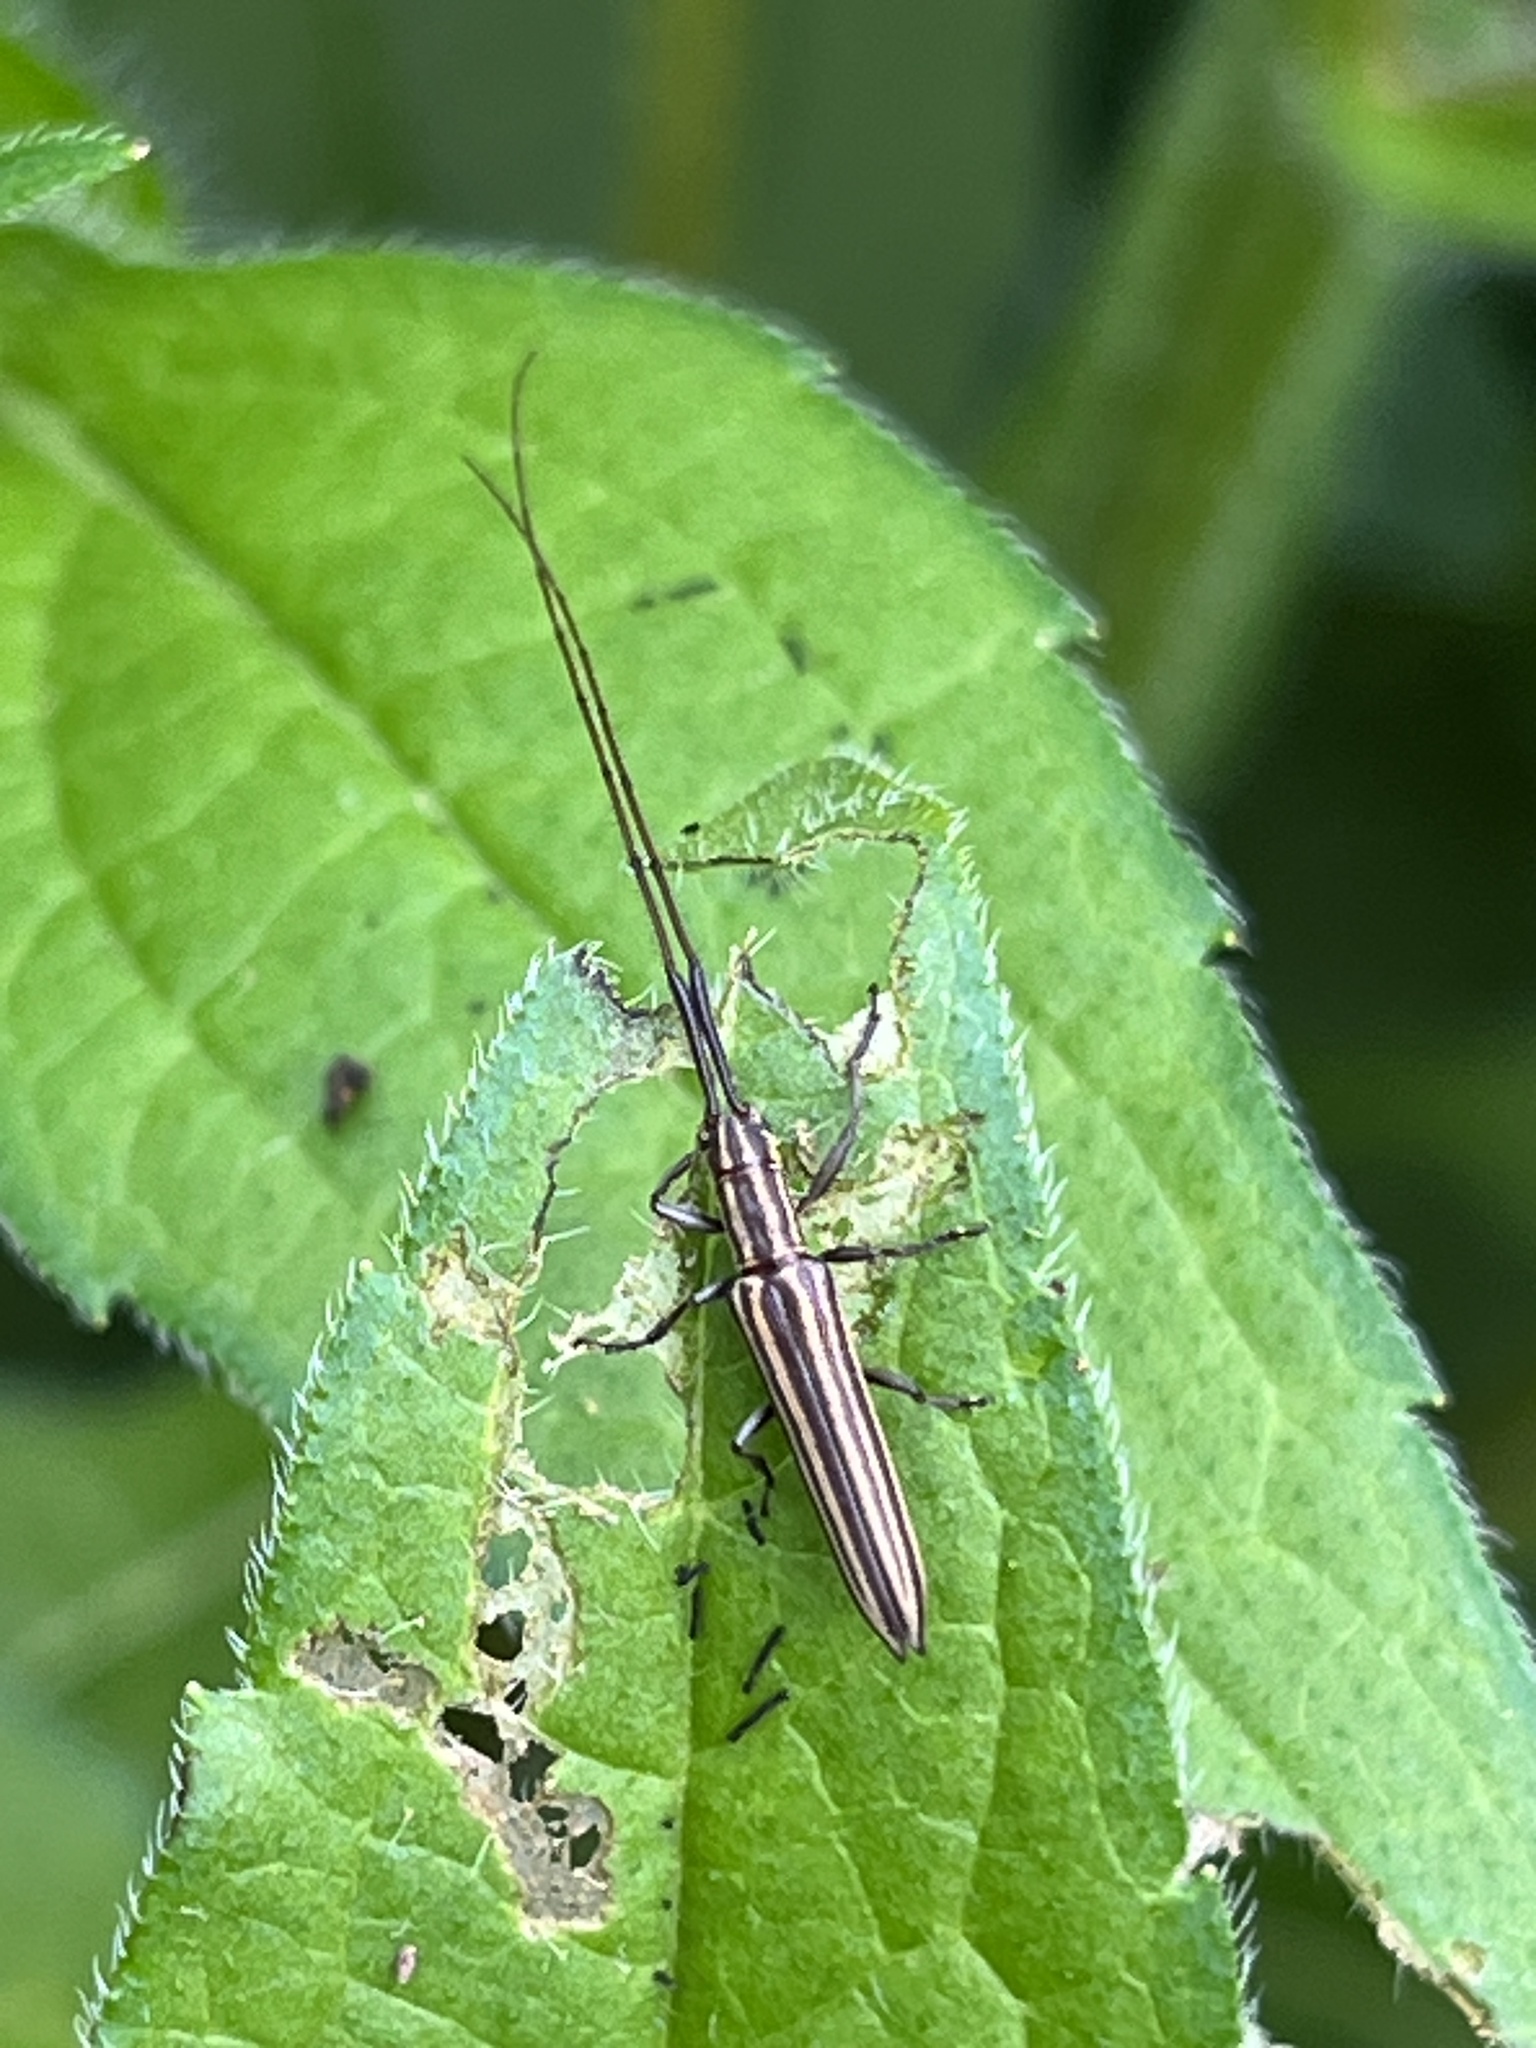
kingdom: Animalia
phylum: Arthropoda
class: Insecta
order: Coleoptera
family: Cerambycidae
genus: Hippopsis
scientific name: Hippopsis
